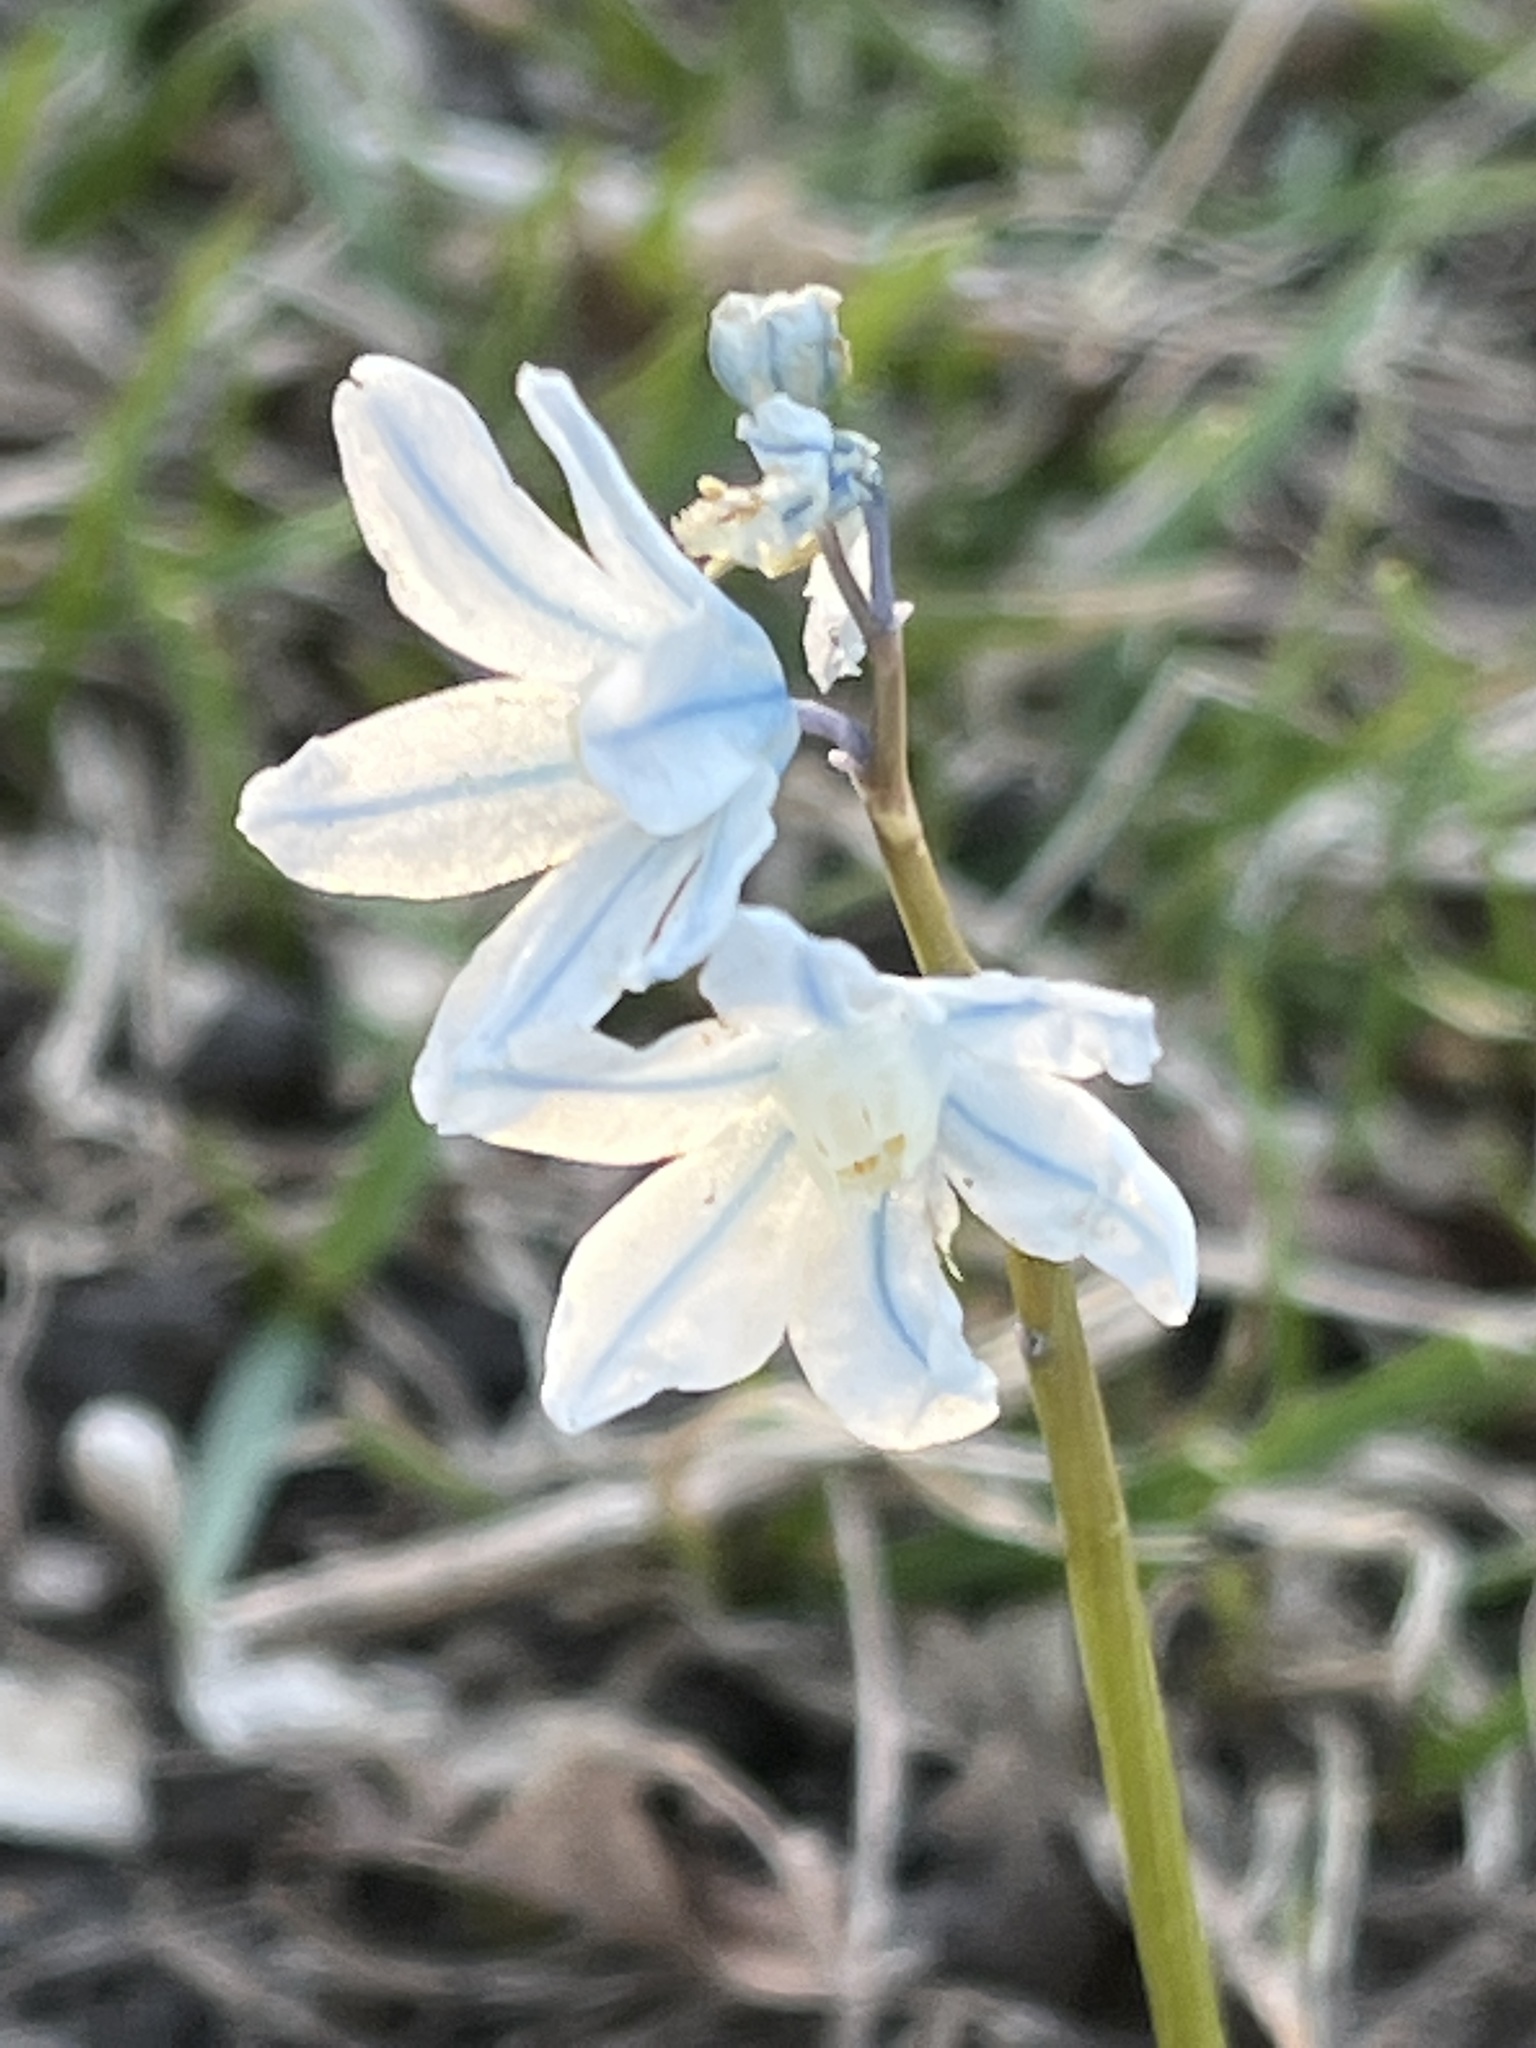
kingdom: Plantae
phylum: Tracheophyta
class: Liliopsida
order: Asparagales
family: Asparagaceae
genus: Puschkinia
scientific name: Puschkinia scilloides
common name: Striped squill
